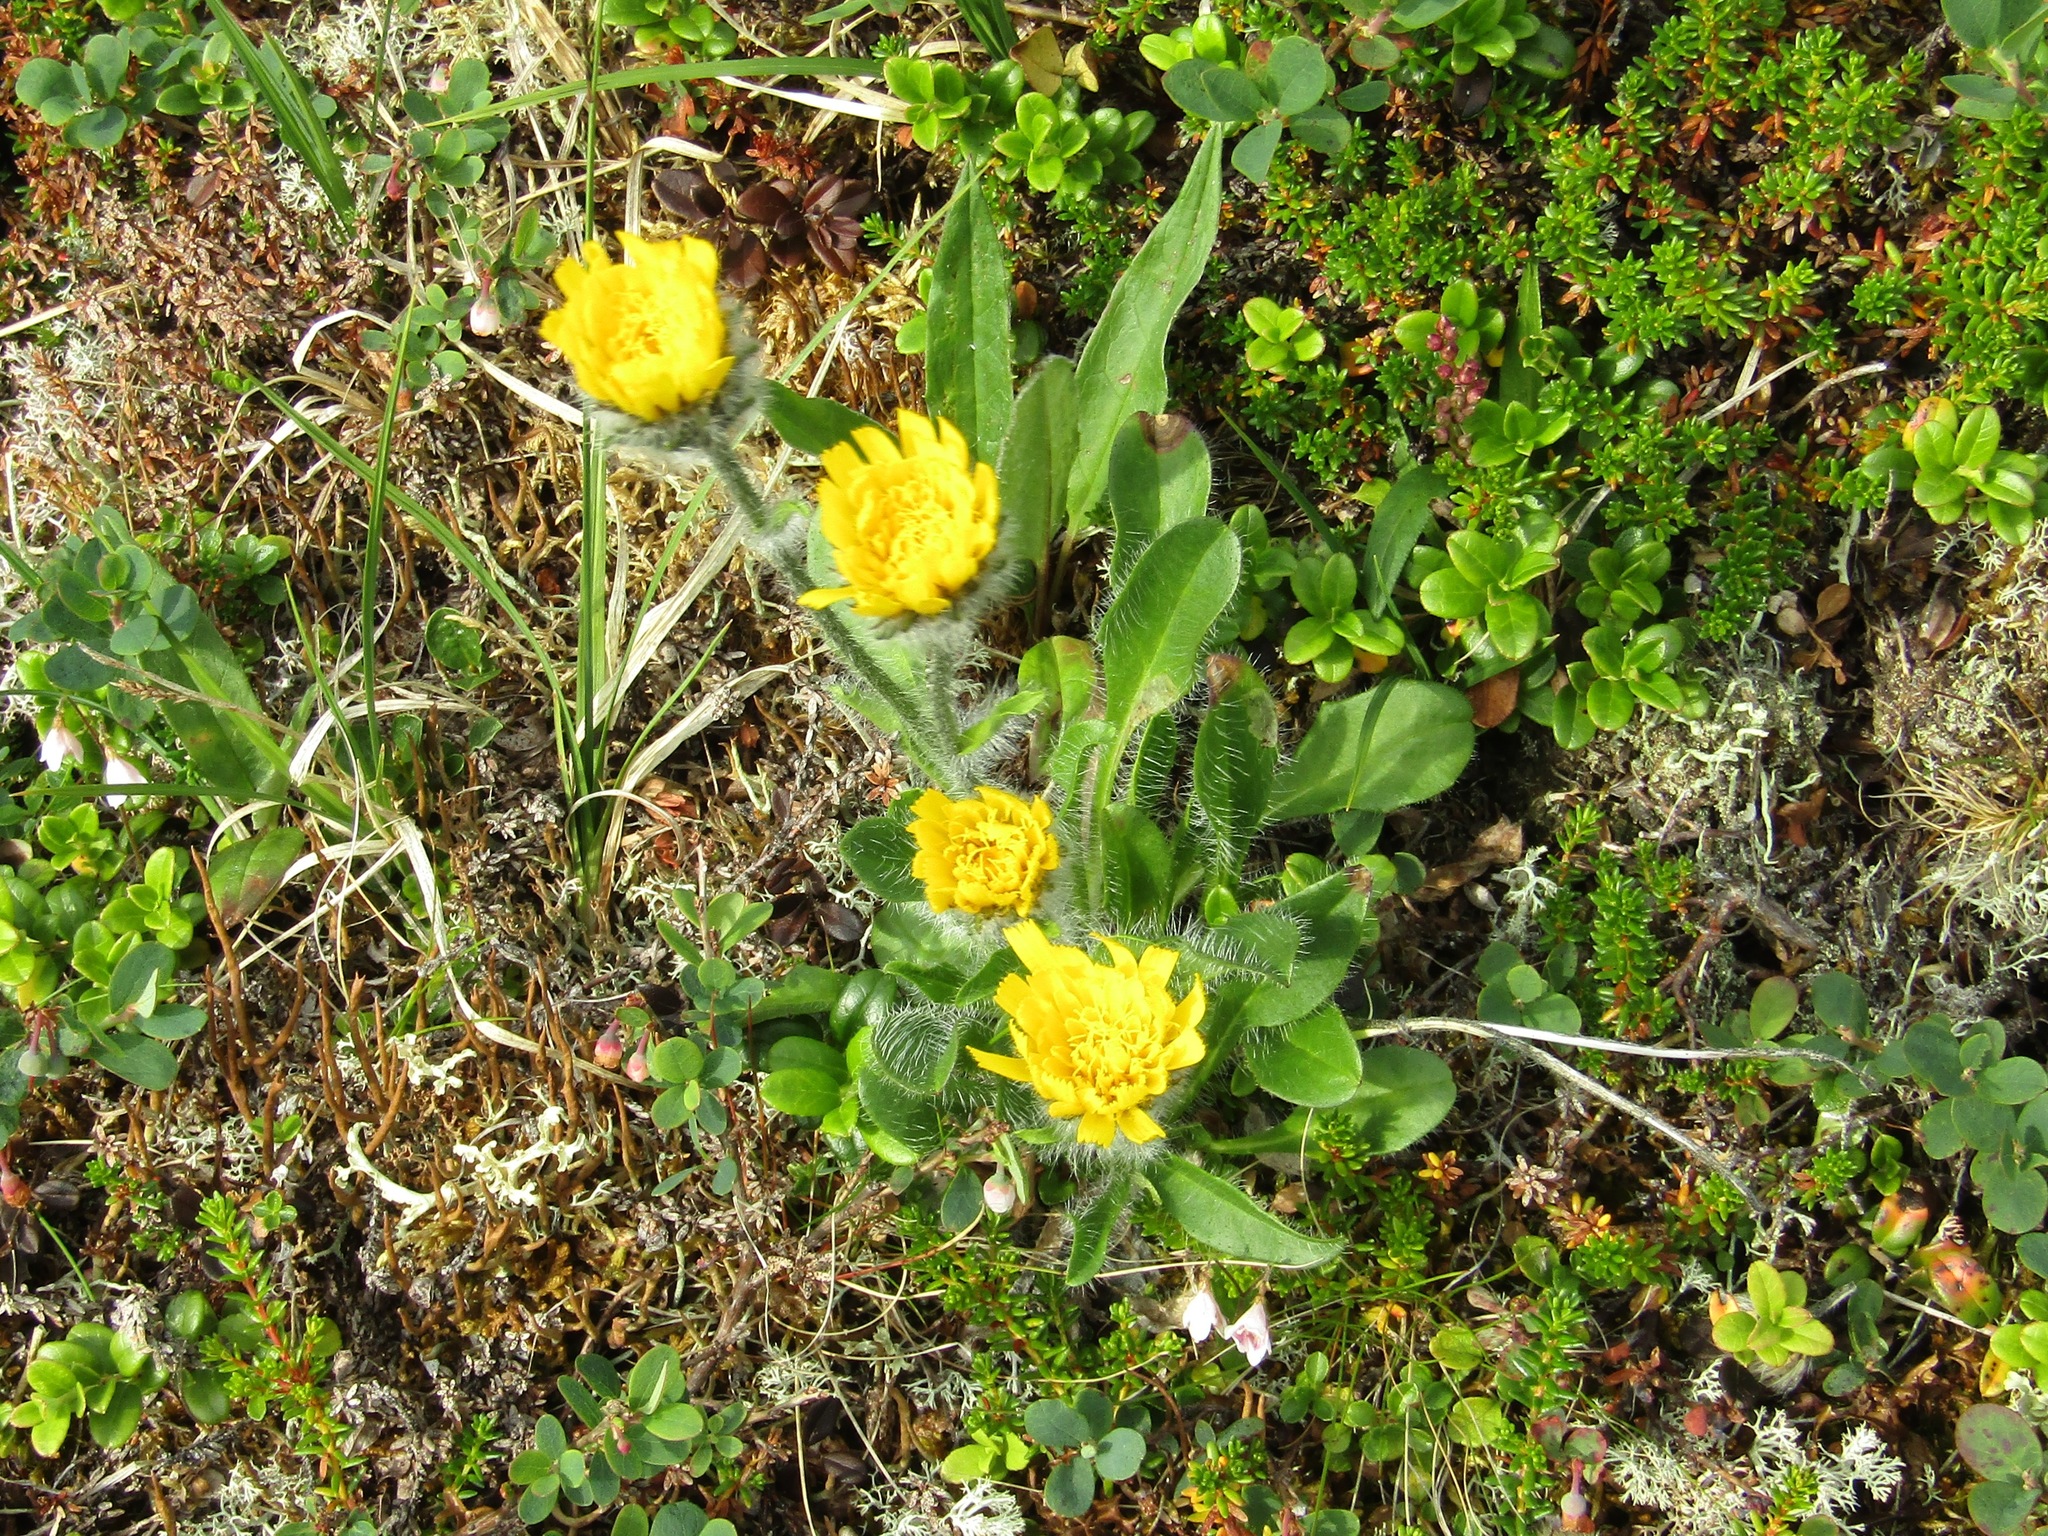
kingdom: Plantae
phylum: Tracheophyta
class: Magnoliopsida
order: Asterales
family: Asteraceae
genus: Hieracium
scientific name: Hieracium alpinum
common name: Alpine hawkweed
